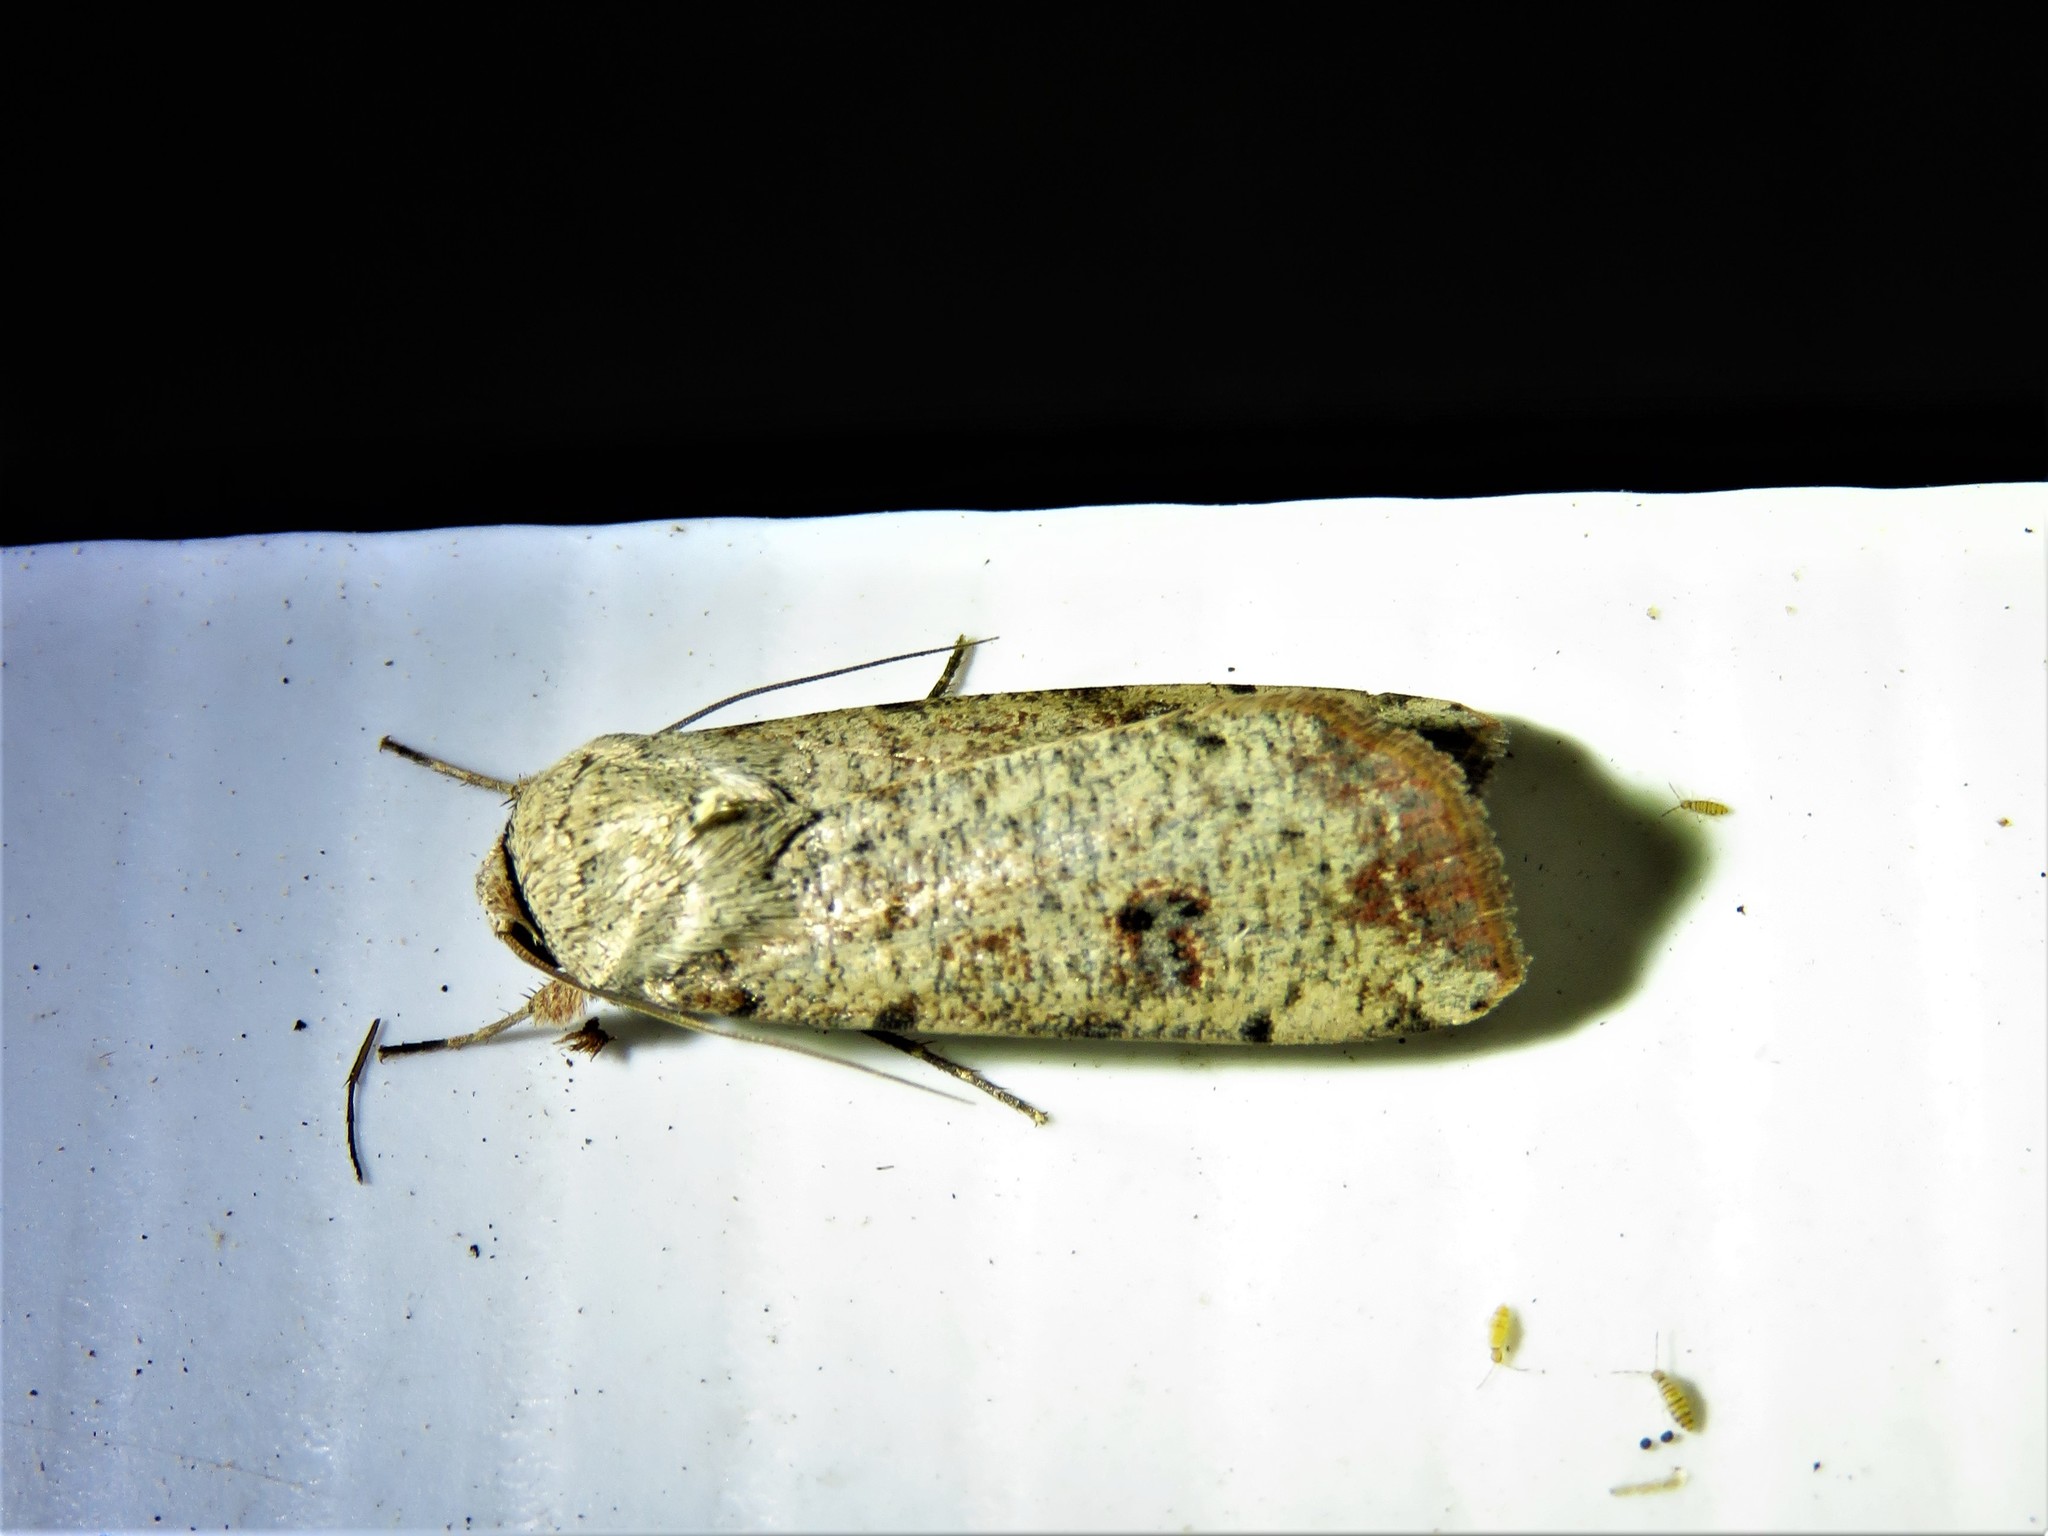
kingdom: Animalia
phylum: Arthropoda
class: Insecta
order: Lepidoptera
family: Noctuidae
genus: Anicla
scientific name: Anicla infecta
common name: Green cutworm
